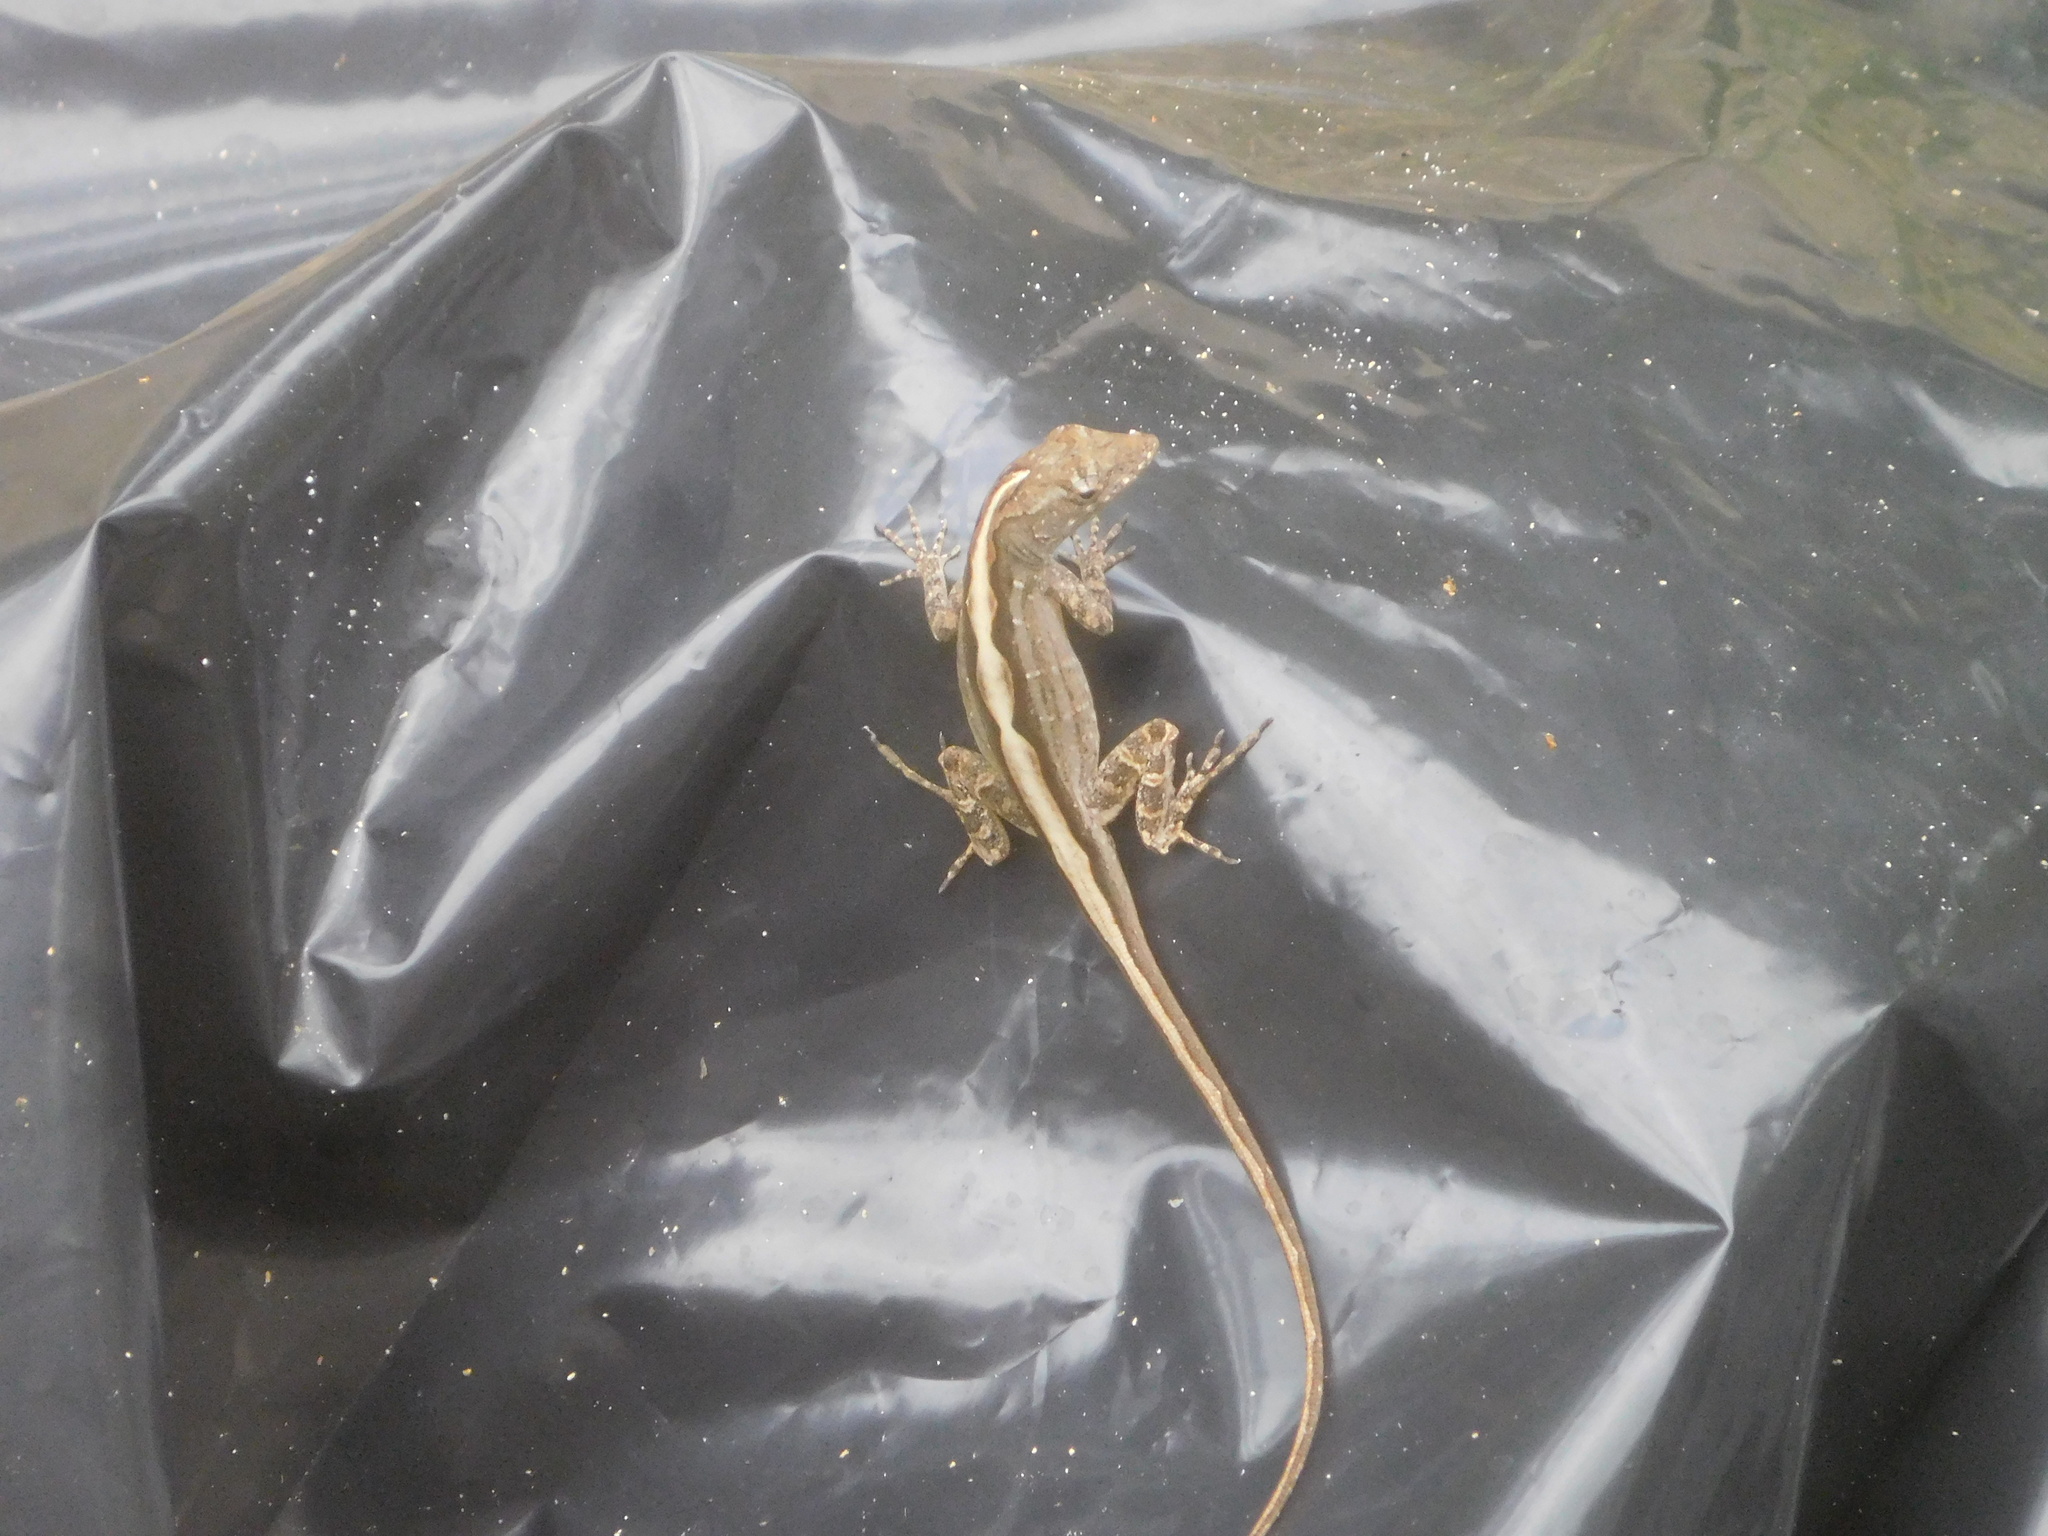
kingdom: Animalia
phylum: Chordata
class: Squamata
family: Dactyloidae
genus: Anolis
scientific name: Anolis sagrei
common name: Brown anole
